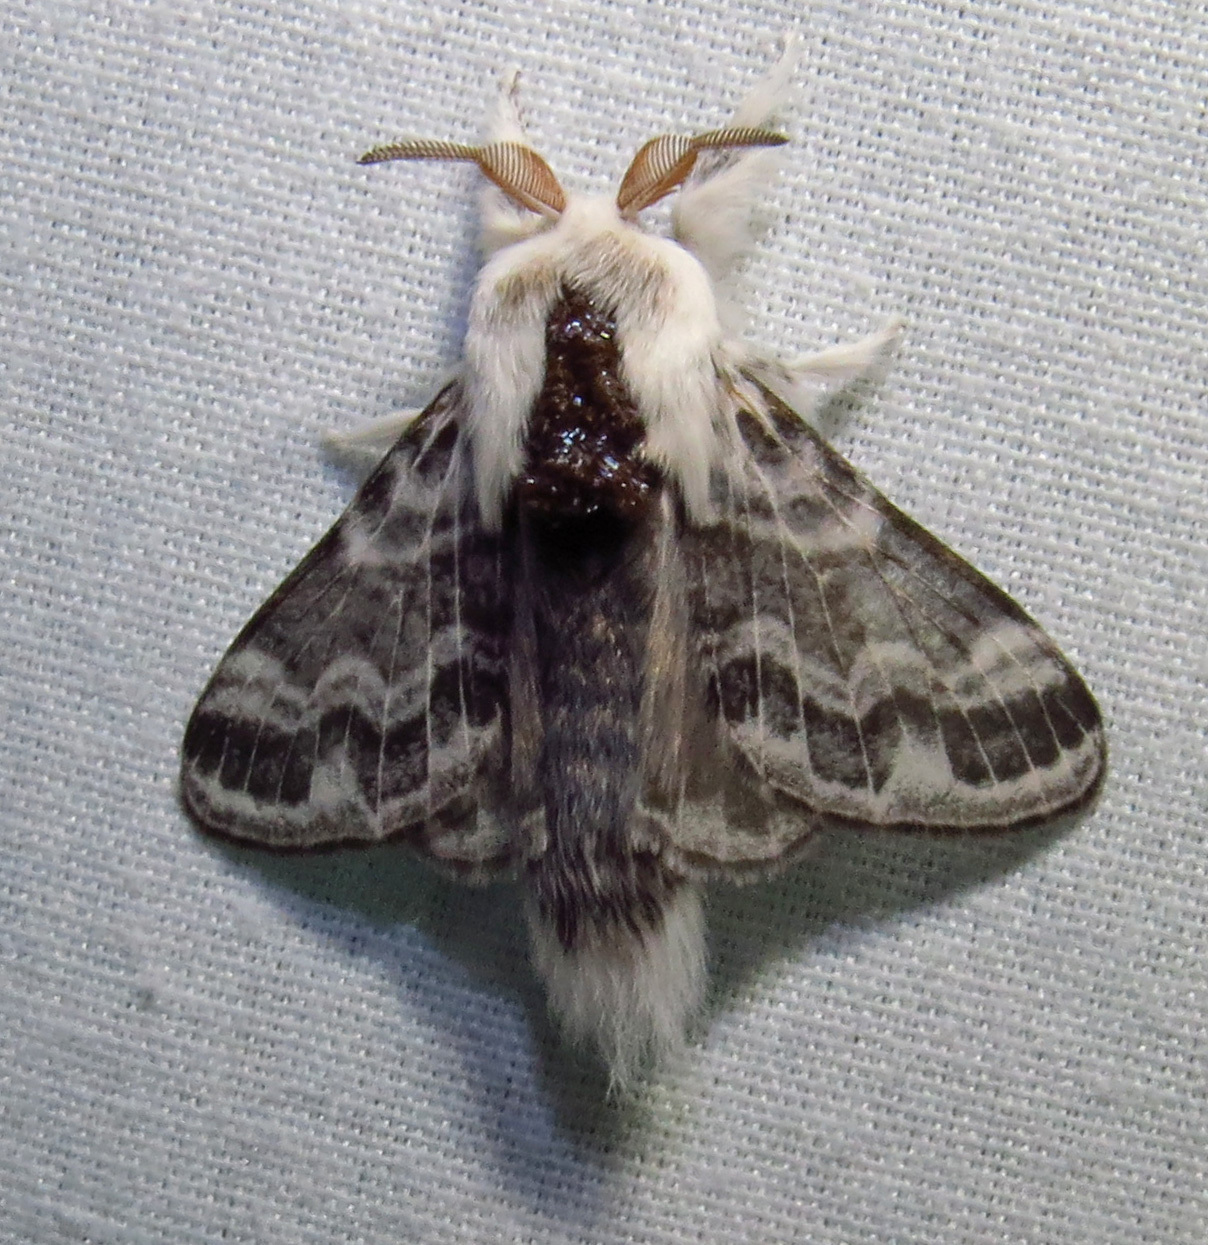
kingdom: Animalia
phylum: Arthropoda
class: Insecta
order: Lepidoptera
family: Lasiocampidae
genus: Tolype
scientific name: Tolype notialis
